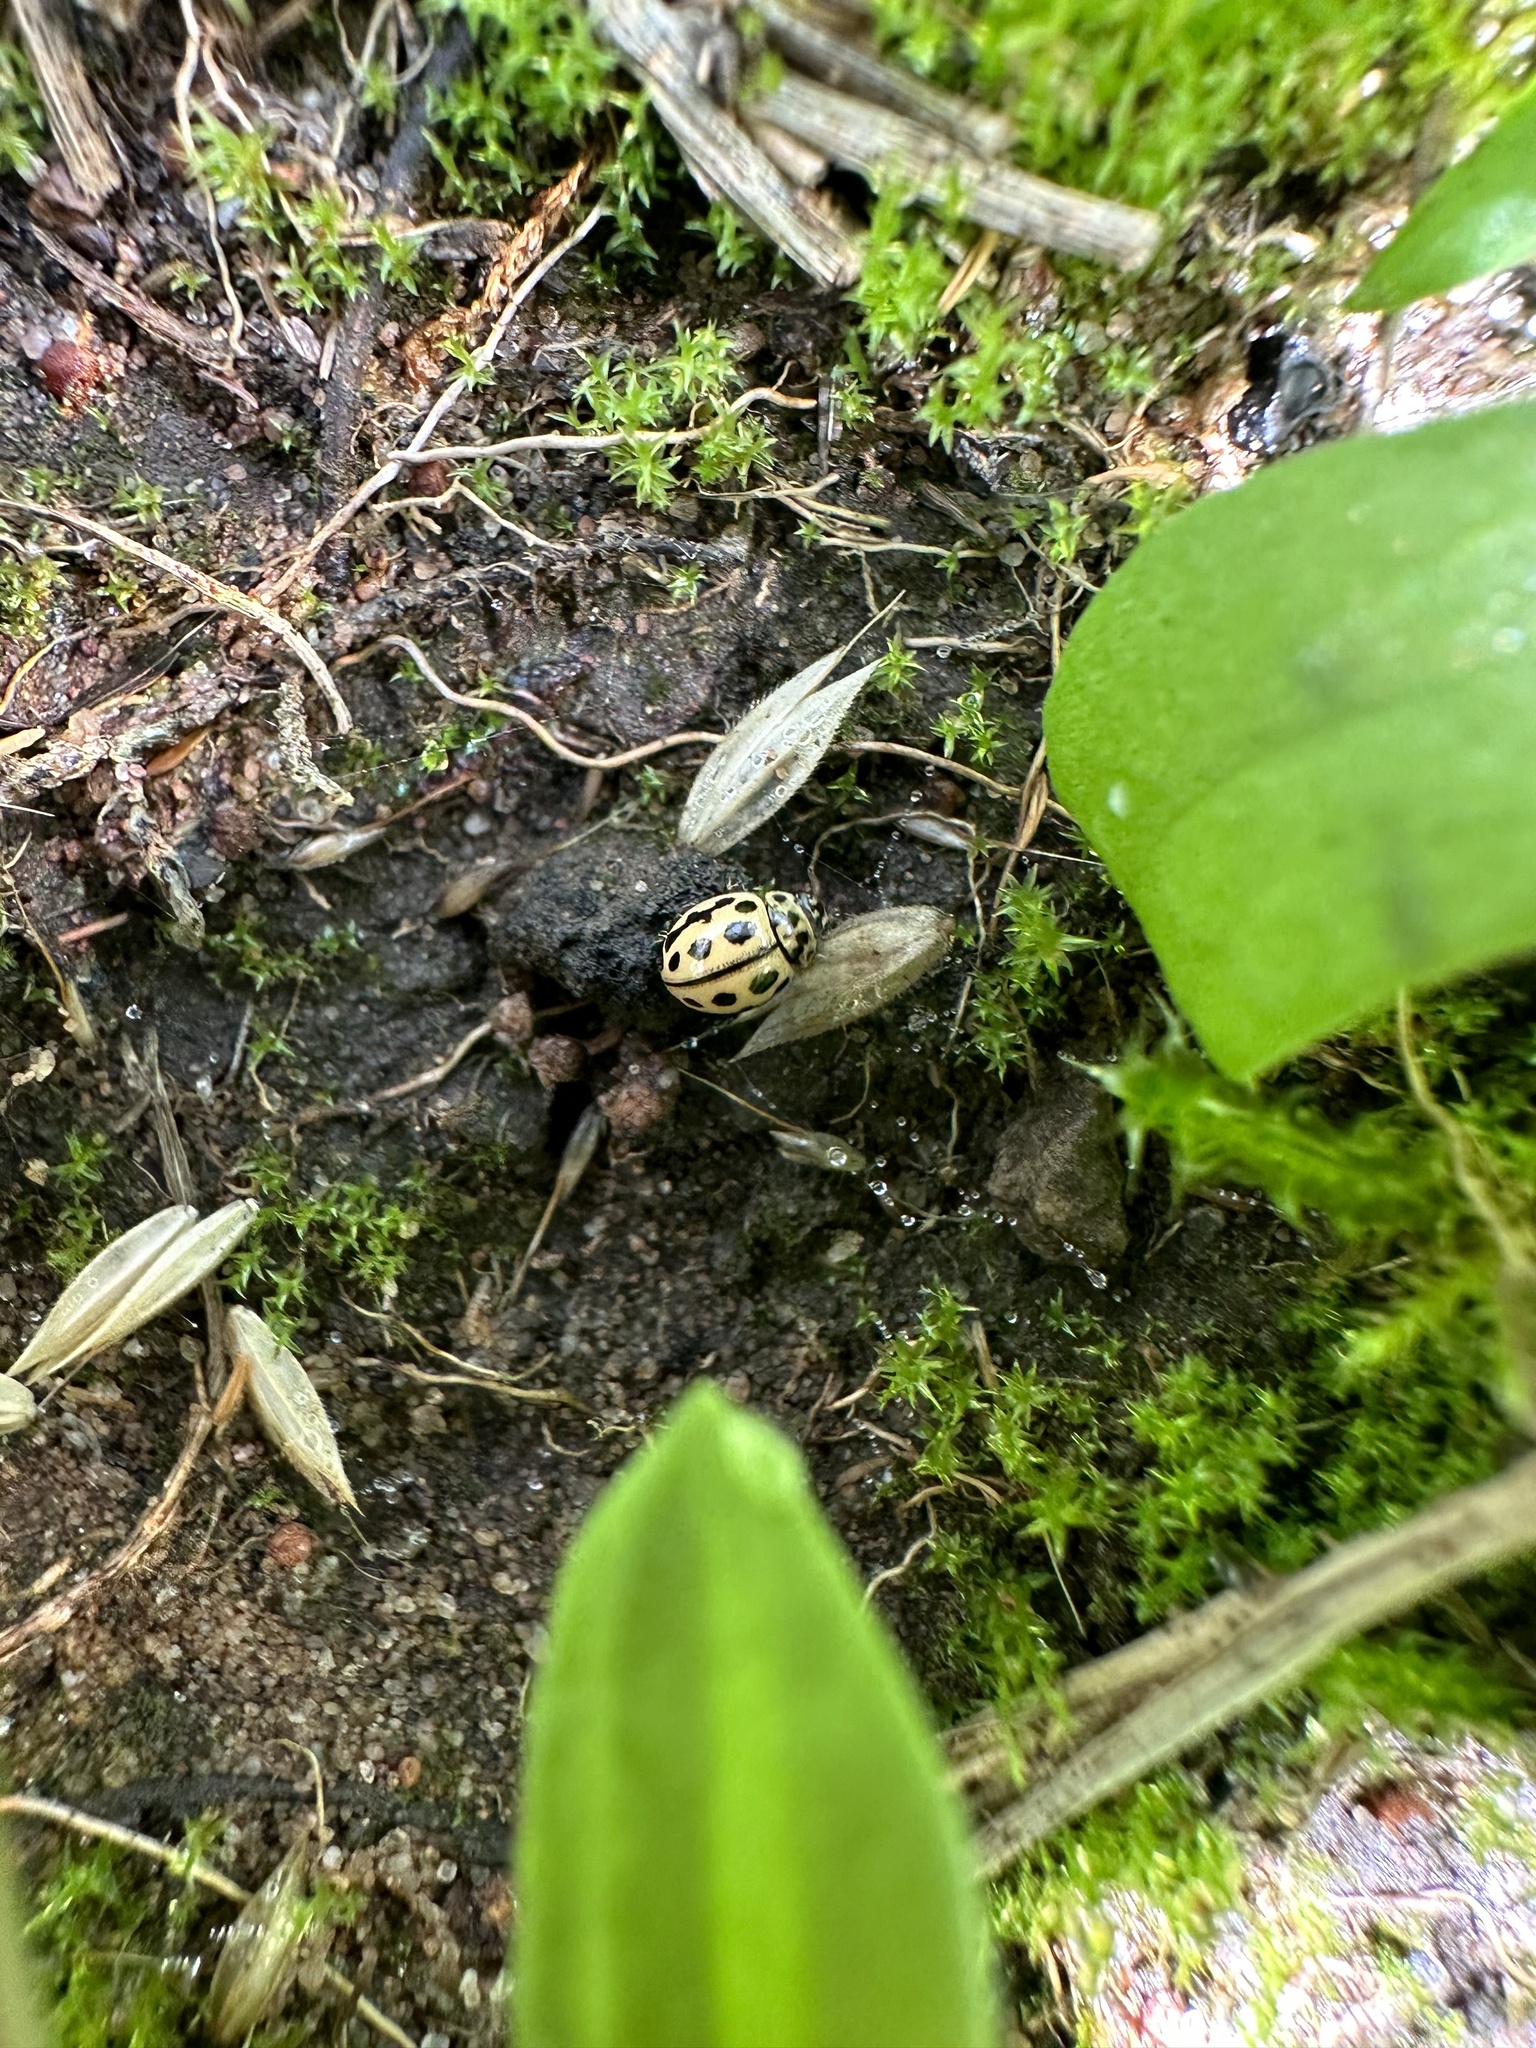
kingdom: Animalia
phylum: Arthropoda
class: Insecta
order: Coleoptera
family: Coccinellidae
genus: Tytthaspis
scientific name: Tytthaspis sedecimpunctata
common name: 16-spot ladybird
